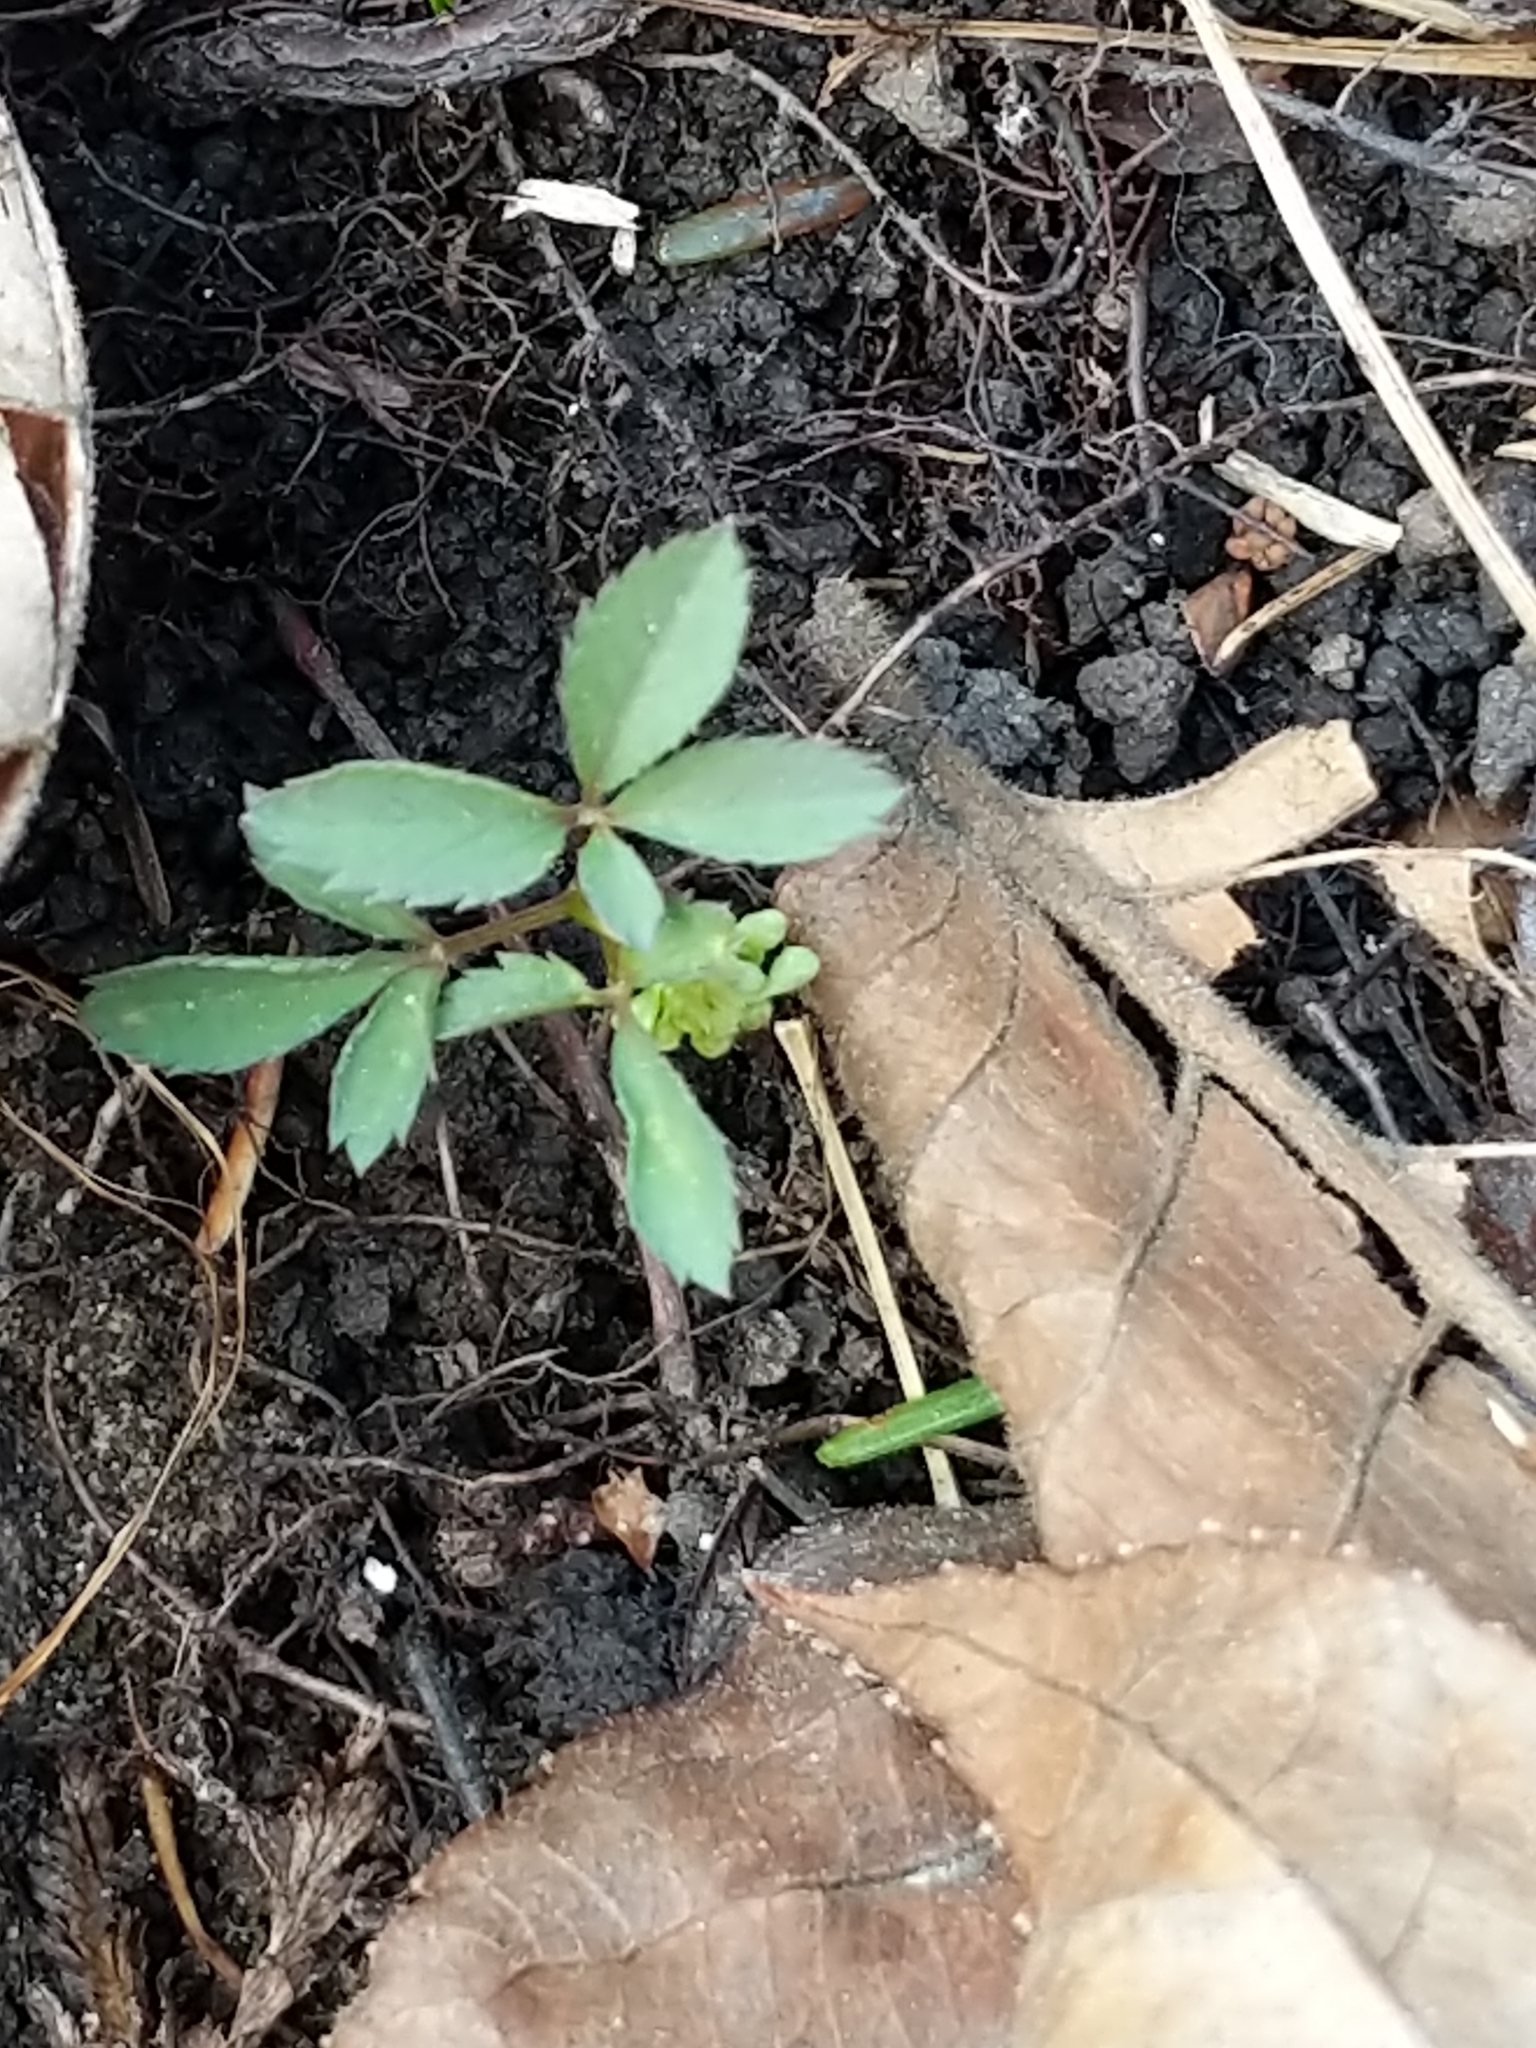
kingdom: Plantae
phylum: Tracheophyta
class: Magnoliopsida
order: Apiales
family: Araliaceae
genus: Panax
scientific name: Panax trifolius
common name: Dwarf ginseng
